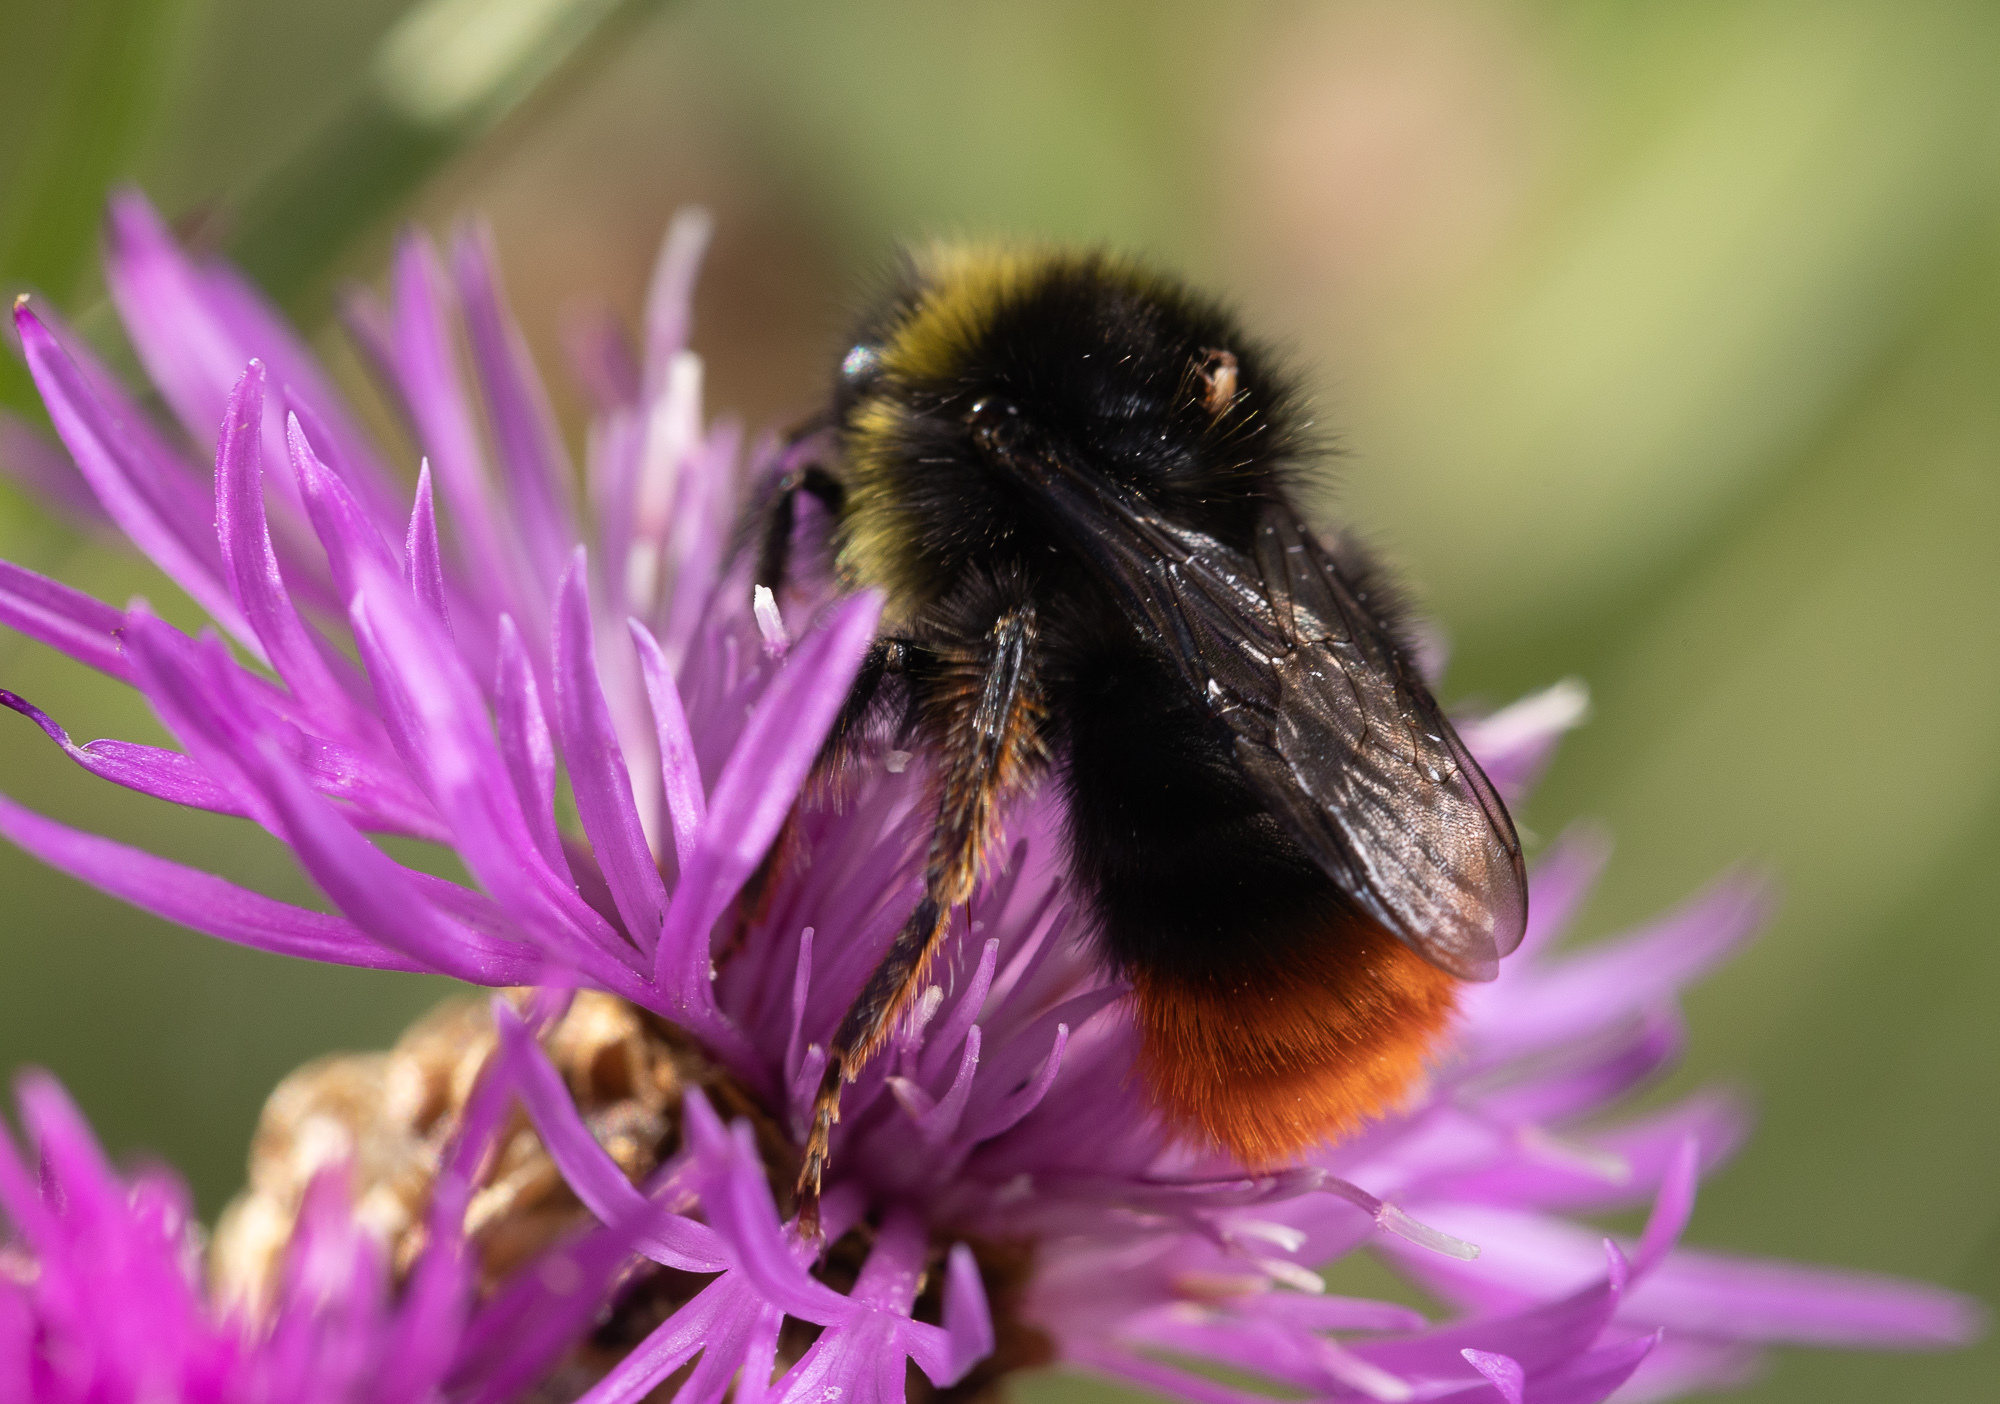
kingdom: Animalia
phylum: Arthropoda
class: Insecta
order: Hymenoptera
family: Apidae
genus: Bombus
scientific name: Bombus lapidarius
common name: Large red-tailed humble-bee
